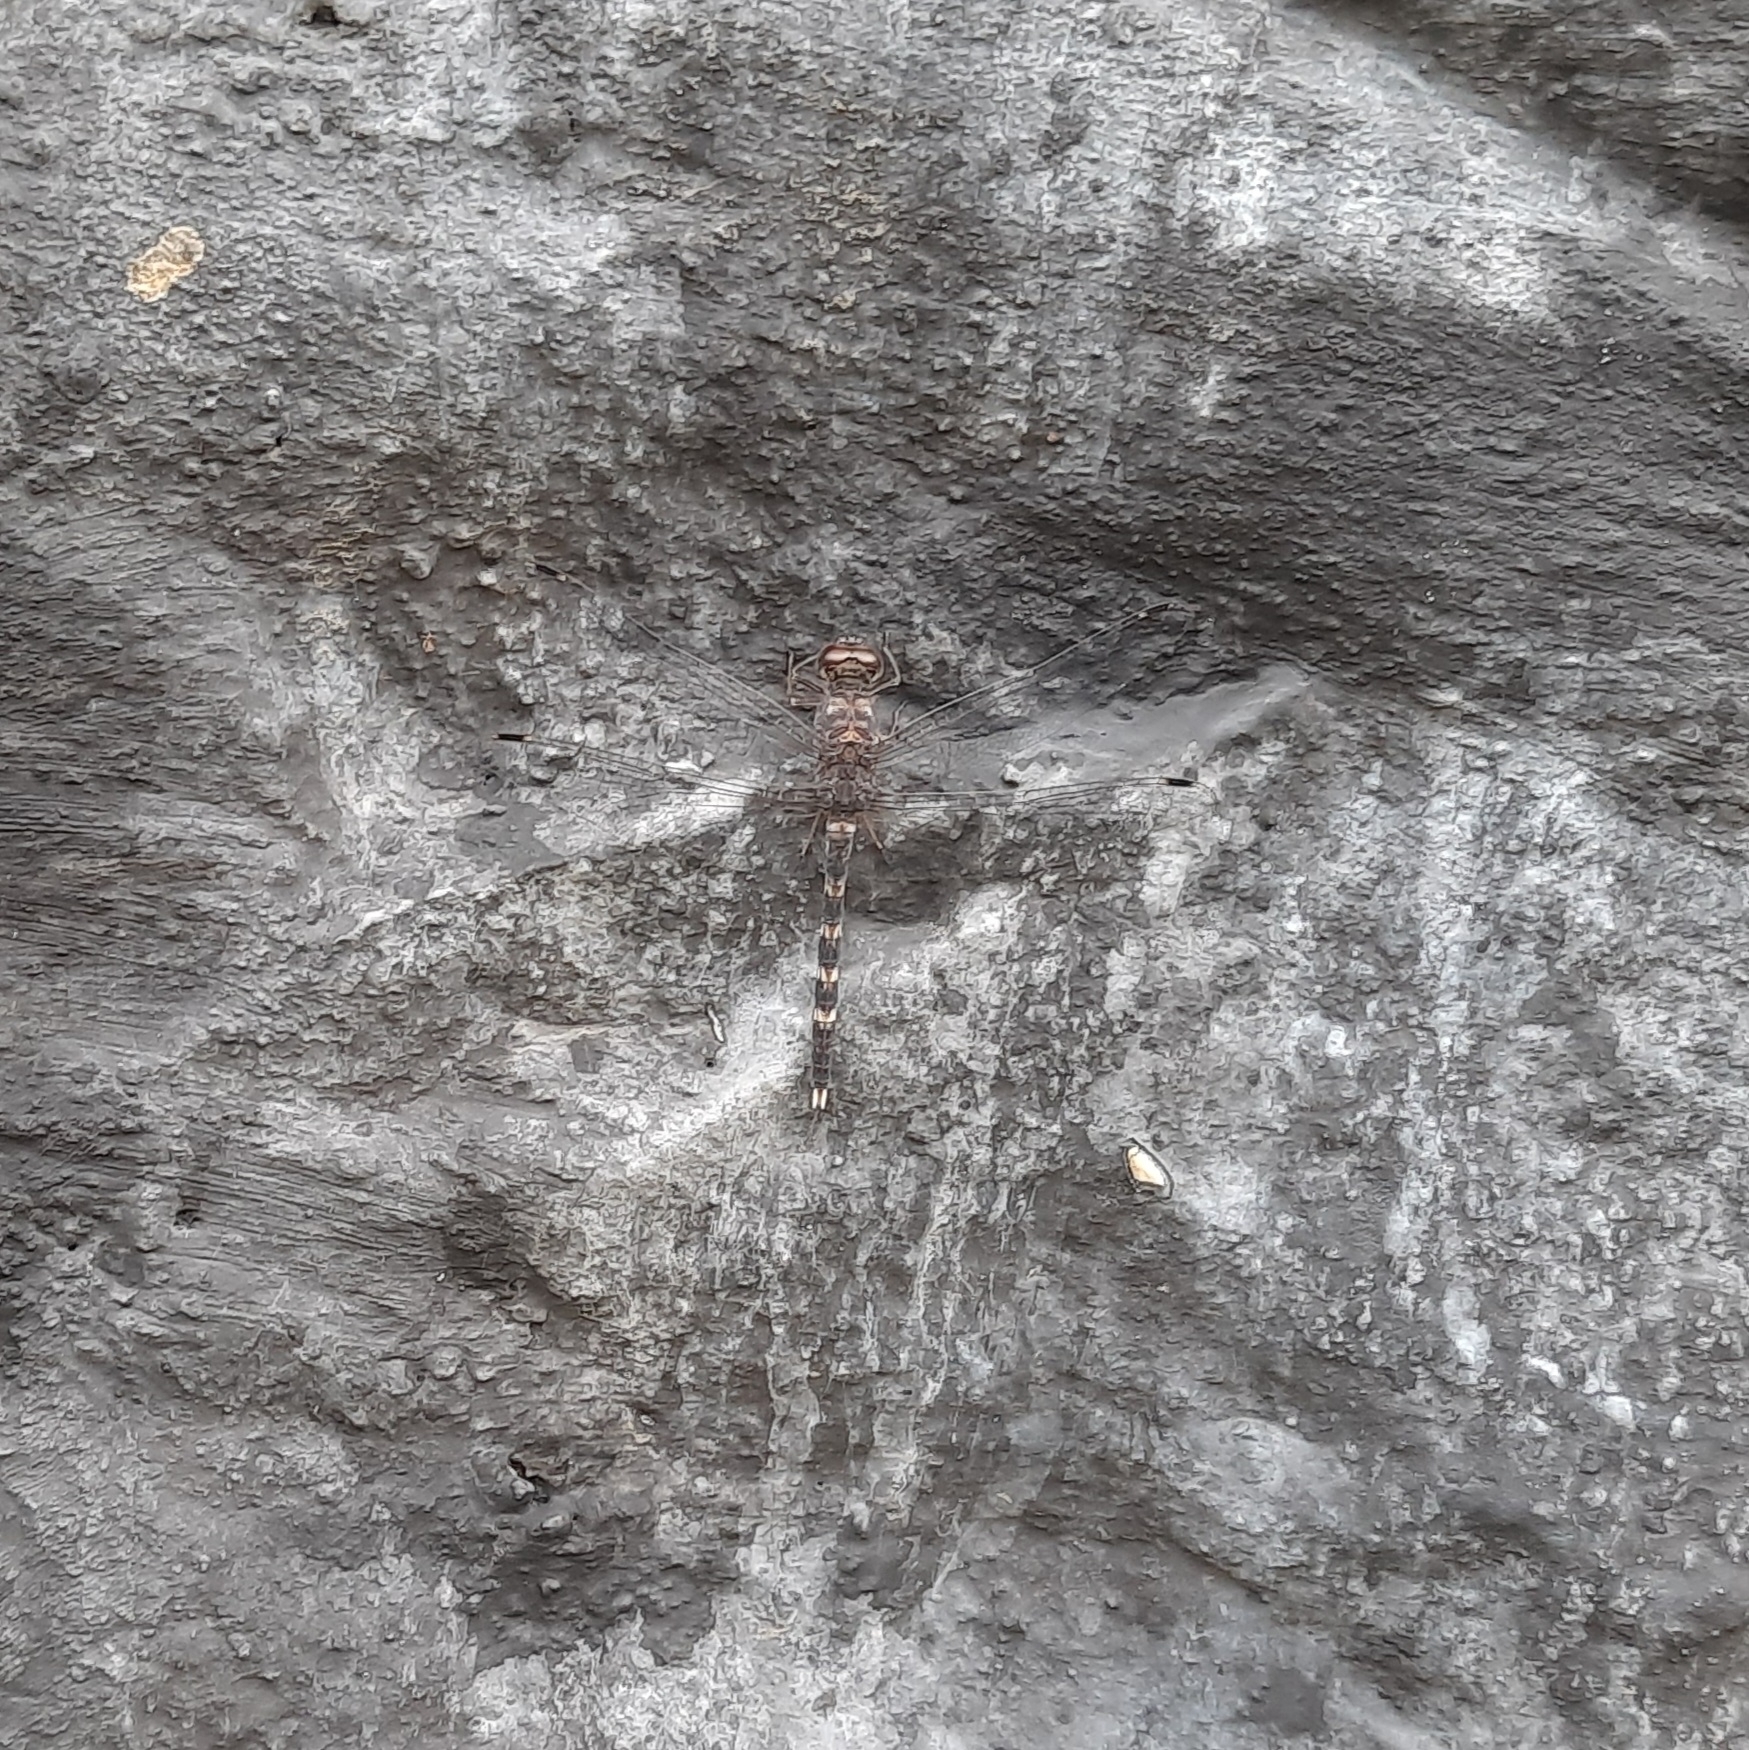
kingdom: Animalia
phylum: Arthropoda
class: Insecta
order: Odonata
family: Libellulidae
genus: Bradinopyga
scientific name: Bradinopyga geminata
